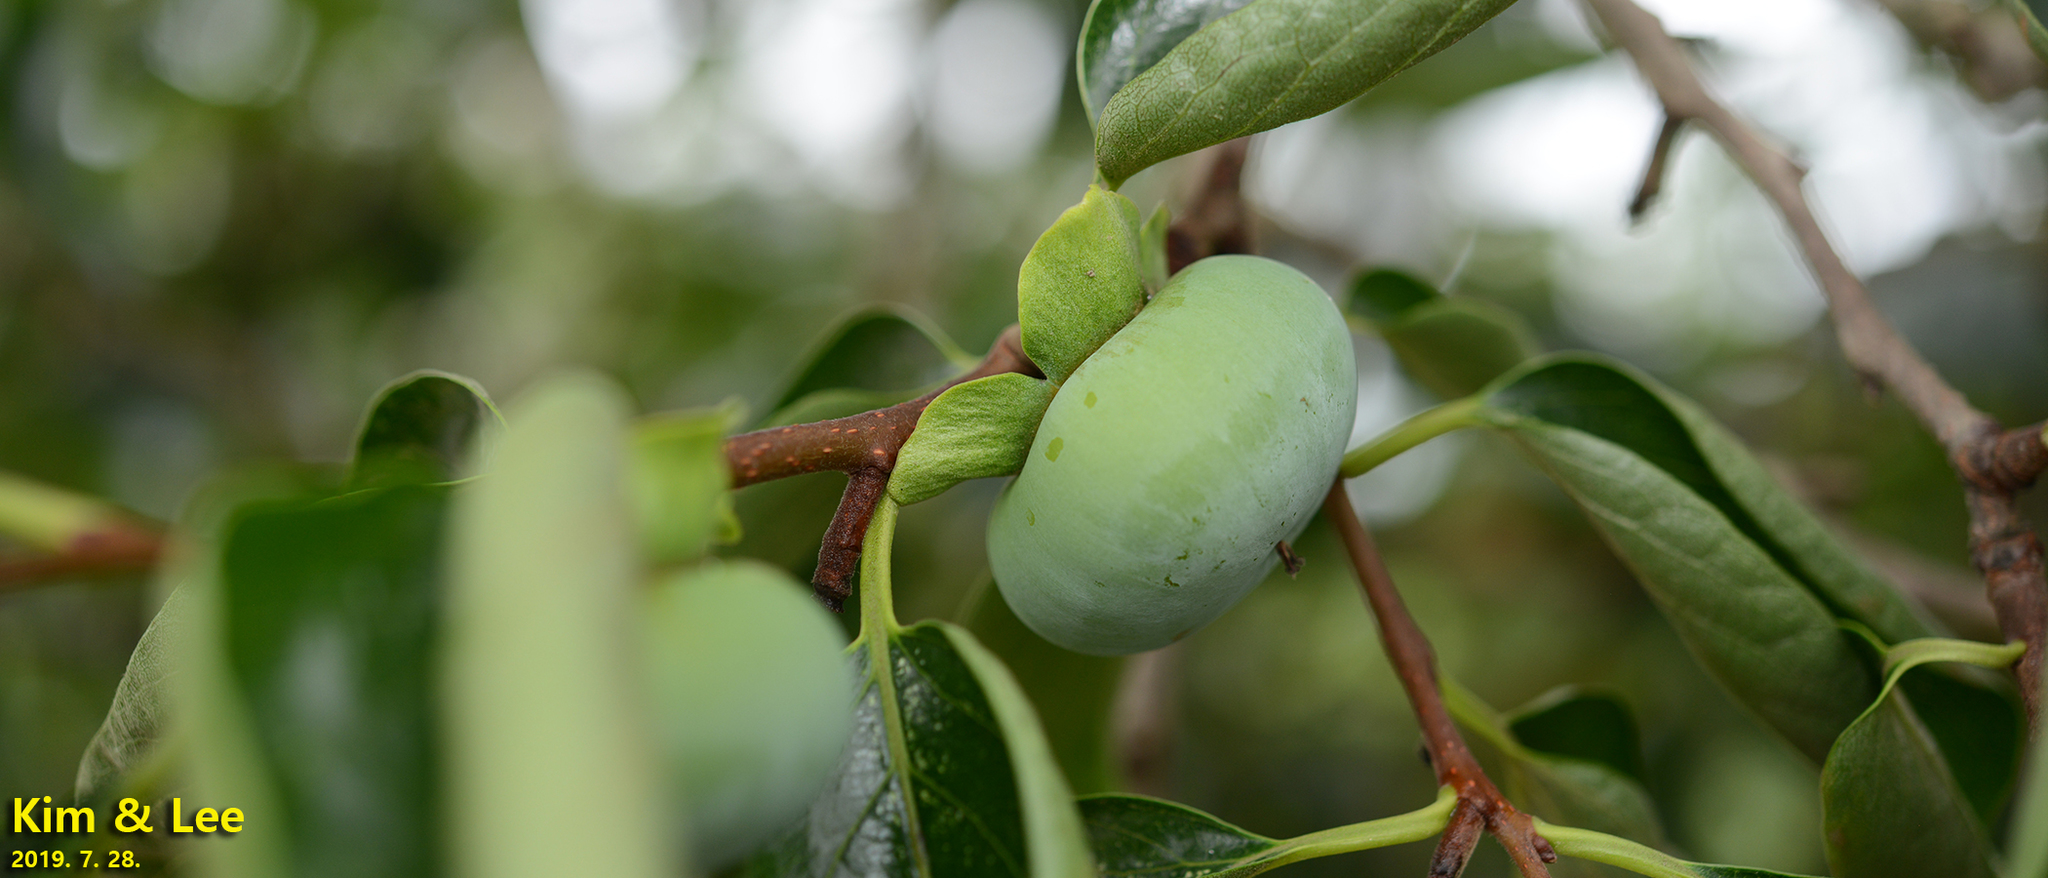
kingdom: Plantae
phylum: Tracheophyta
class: Magnoliopsida
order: Ericales
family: Ebenaceae
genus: Diospyros
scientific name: Diospyros kaki
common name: Persimmon
